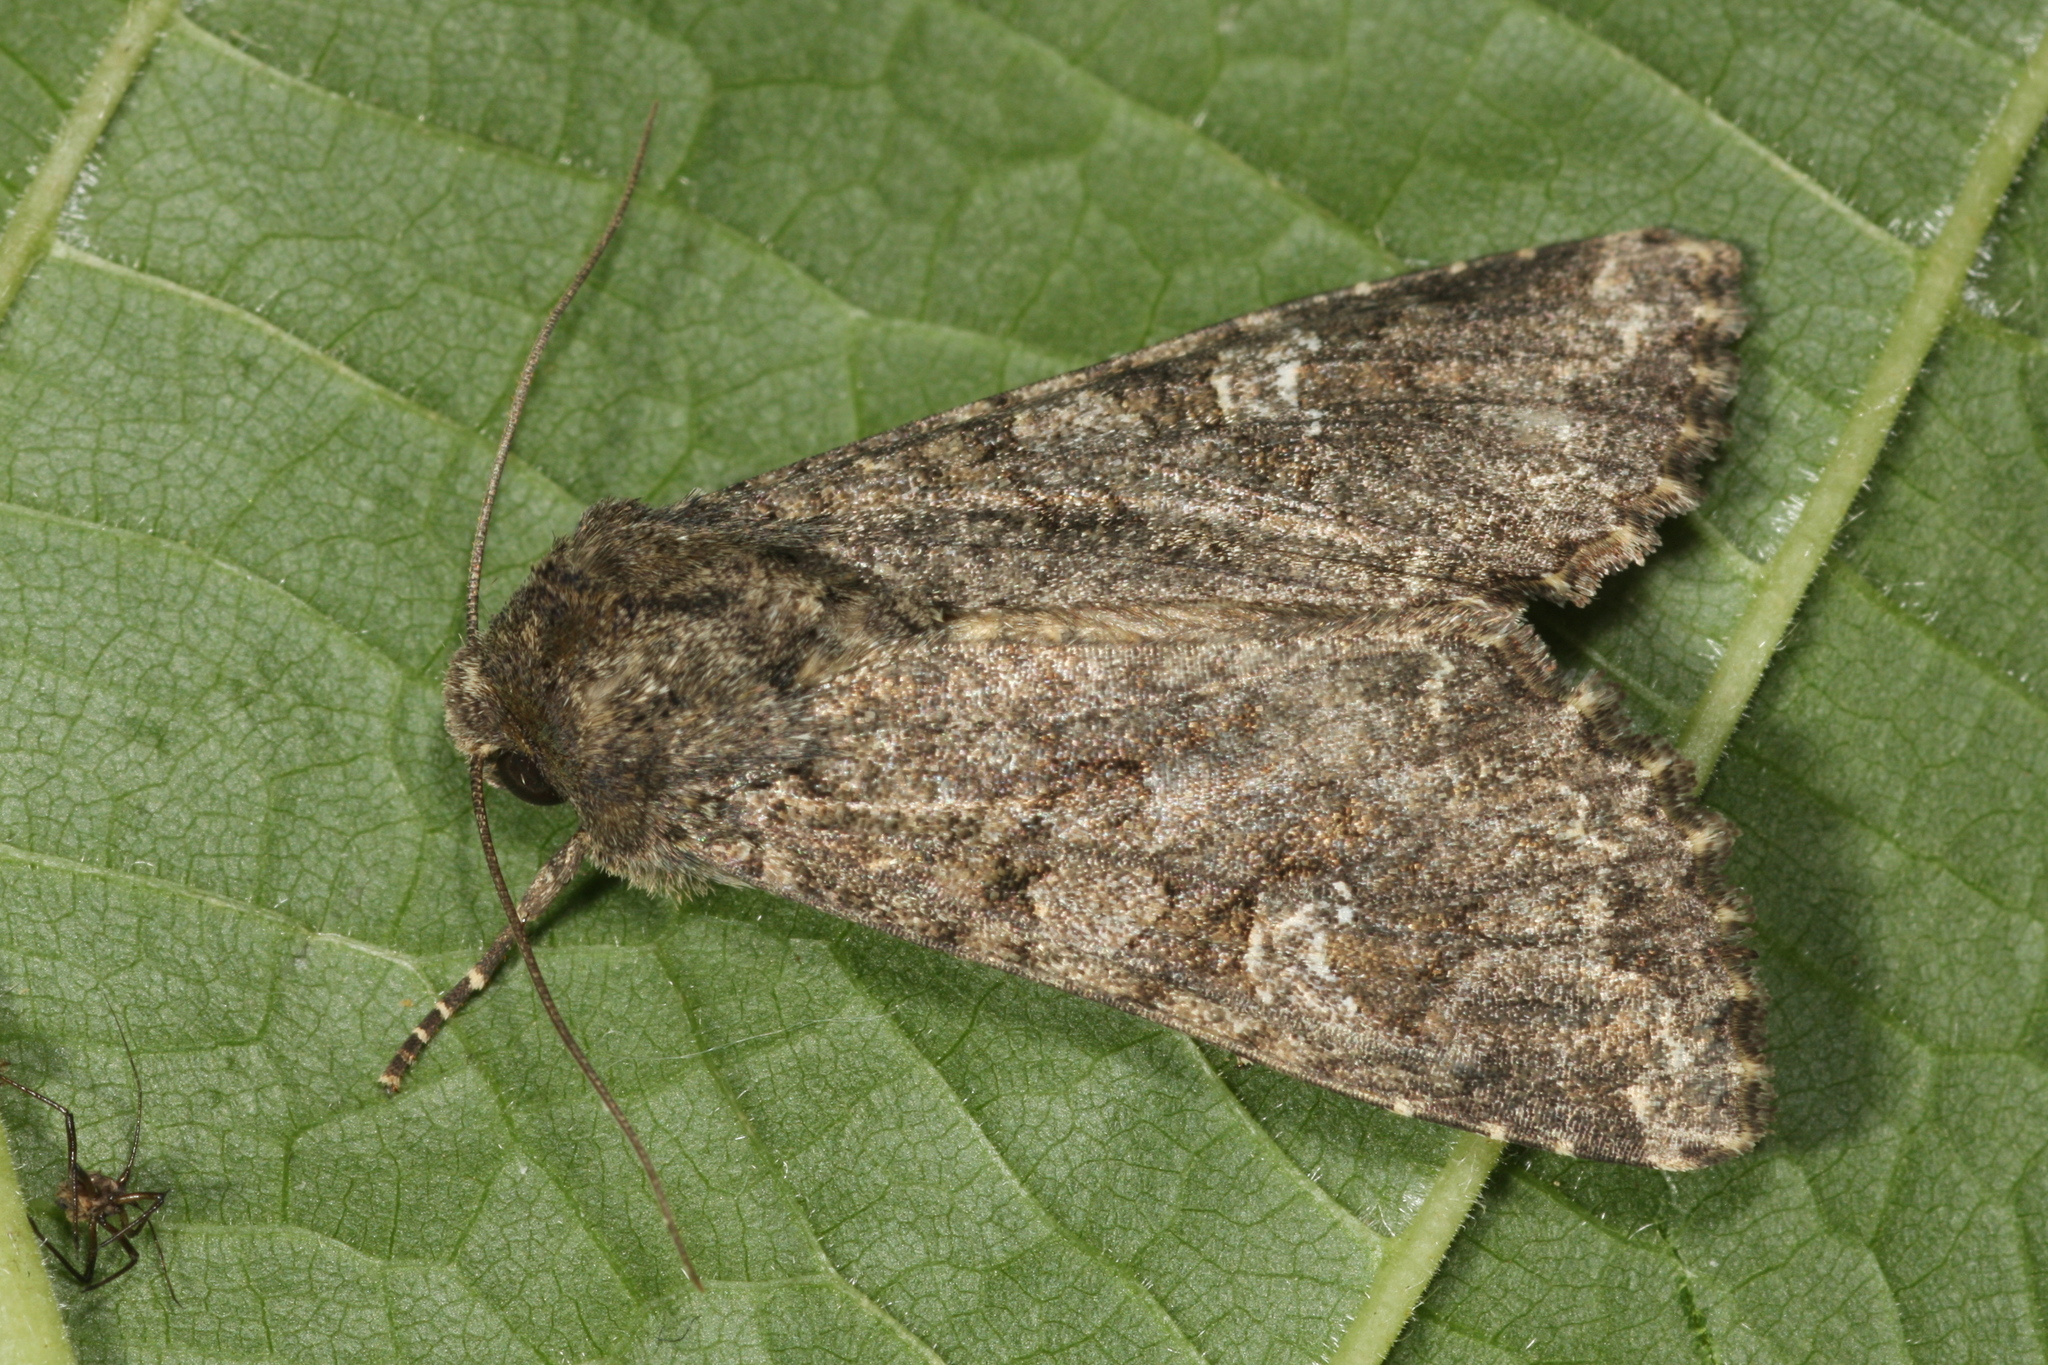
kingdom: Animalia
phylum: Arthropoda
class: Insecta
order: Lepidoptera
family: Noctuidae
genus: Mamestra
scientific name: Mamestra brassicae
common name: Cabbage moth
